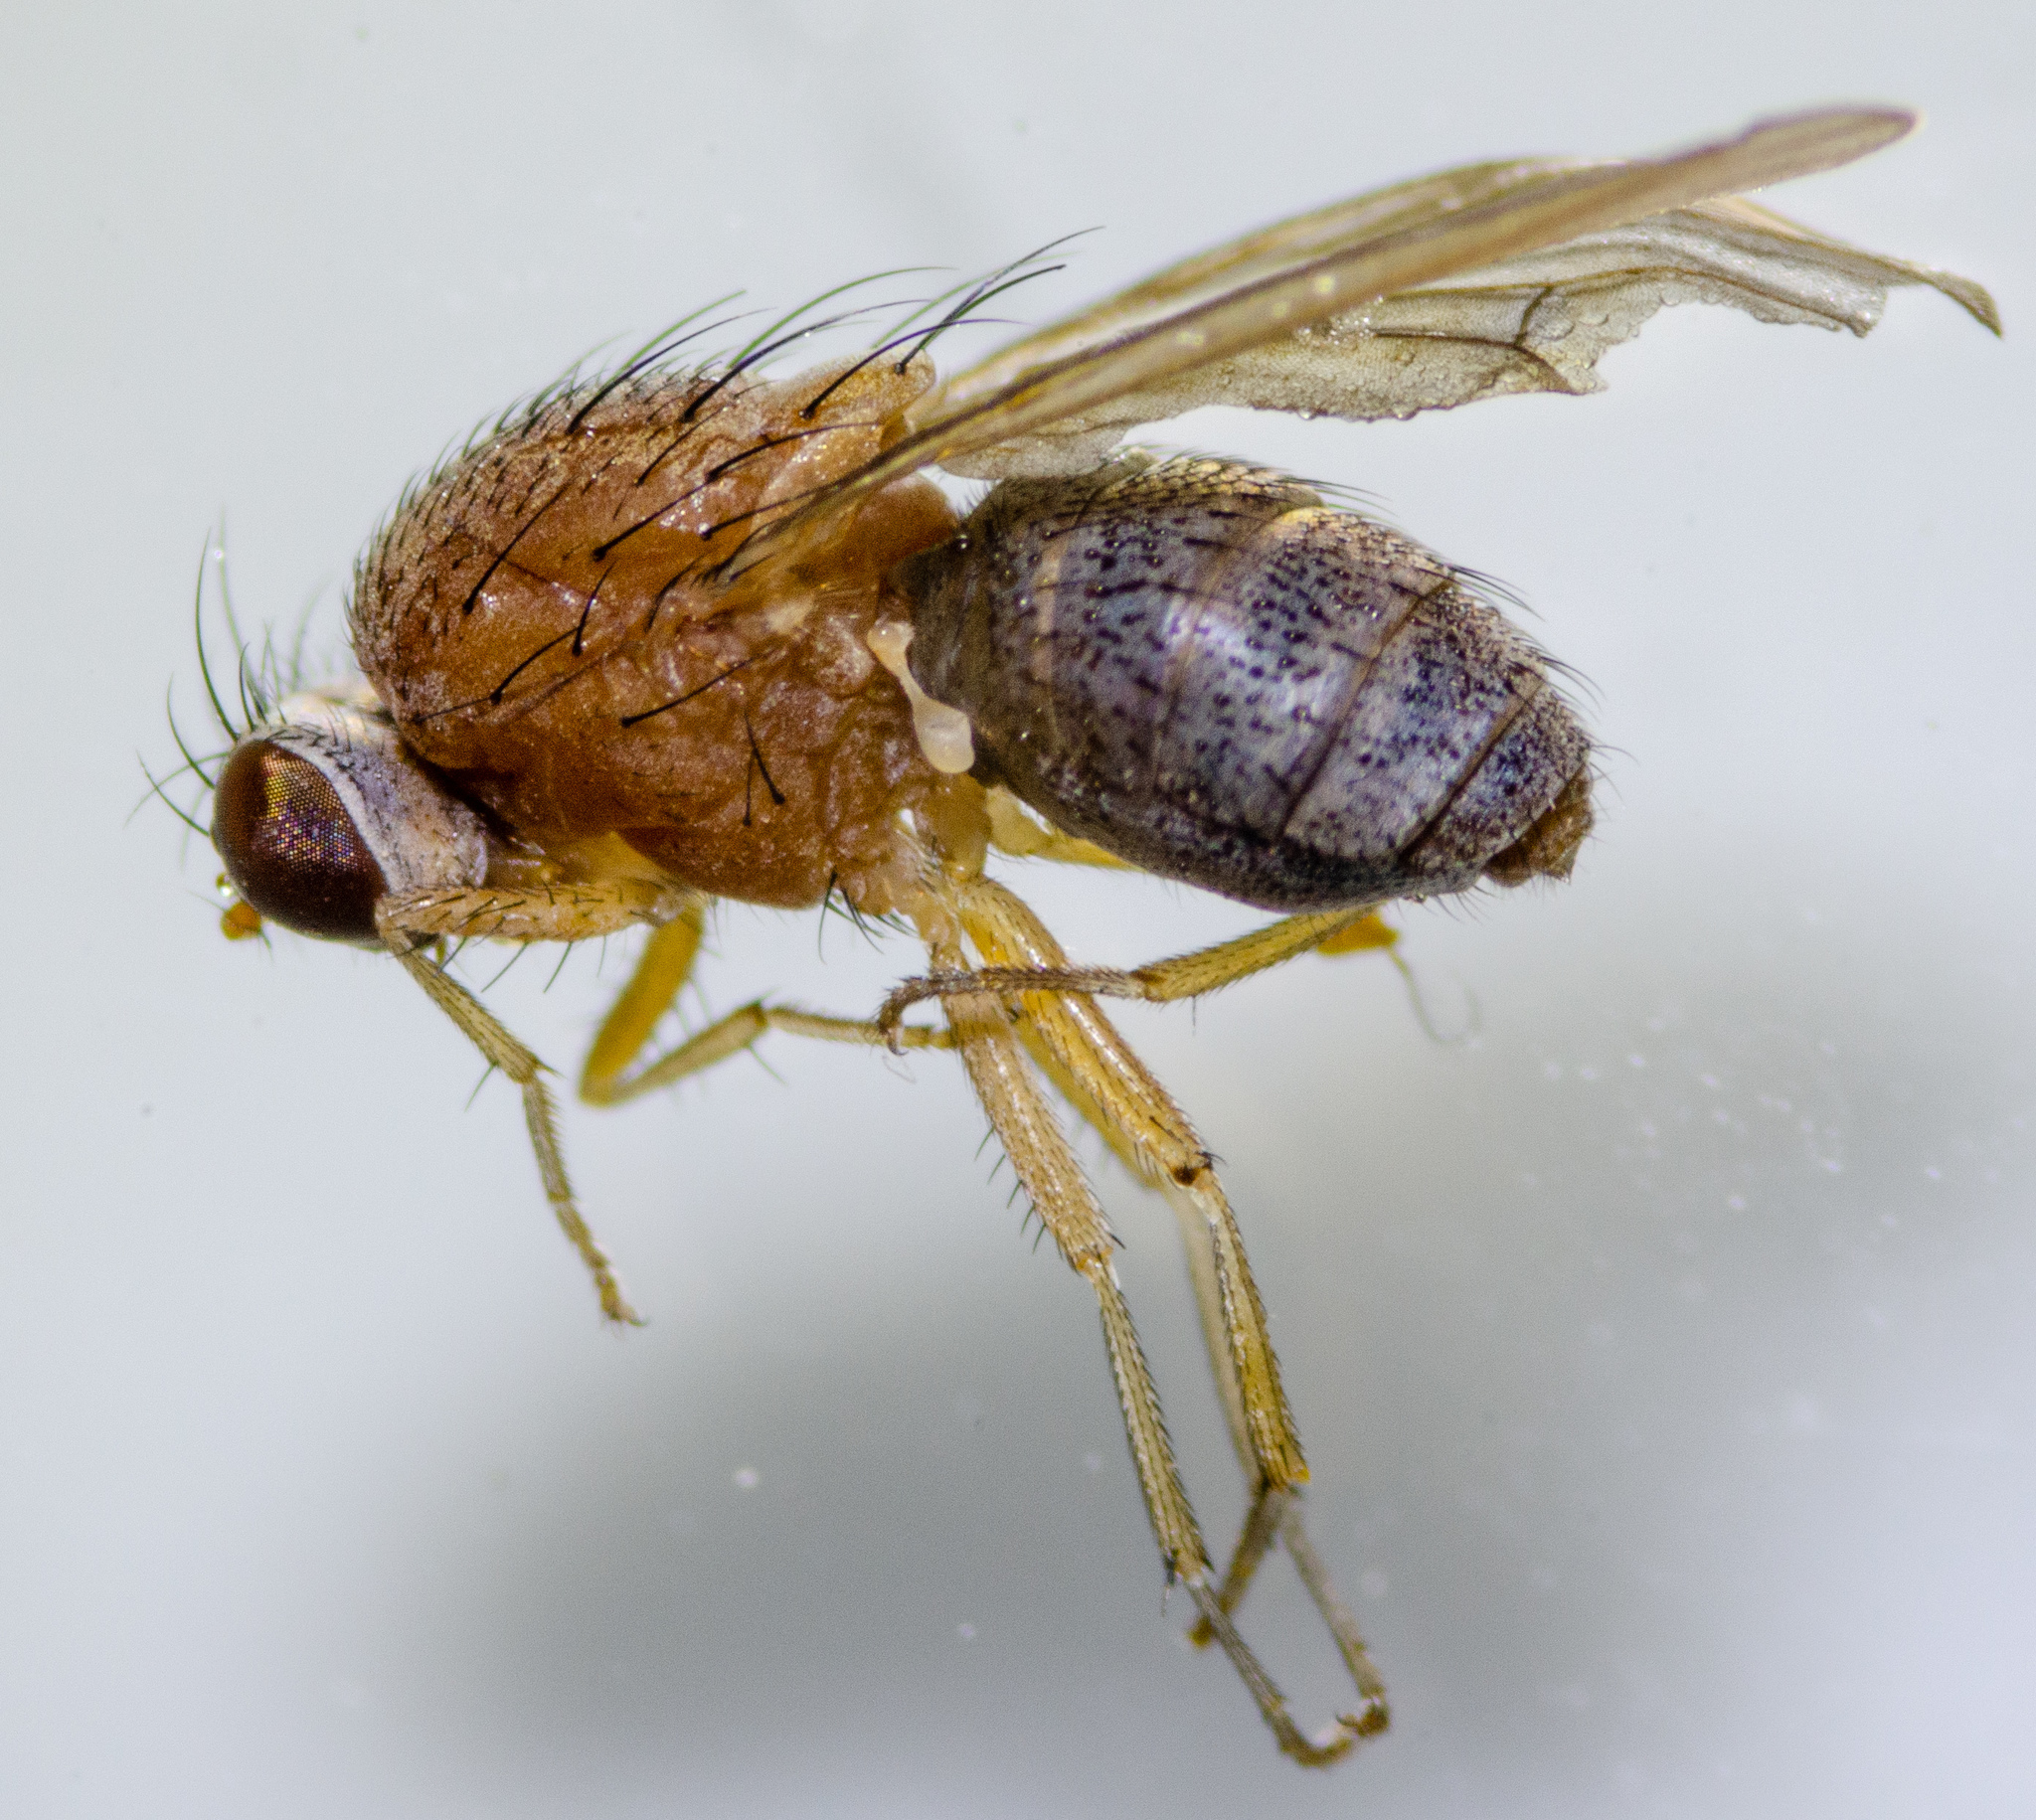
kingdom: Animalia
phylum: Arthropoda
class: Insecta
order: Diptera
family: Lauxaniidae
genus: Minettia
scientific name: Minettia flaveola
